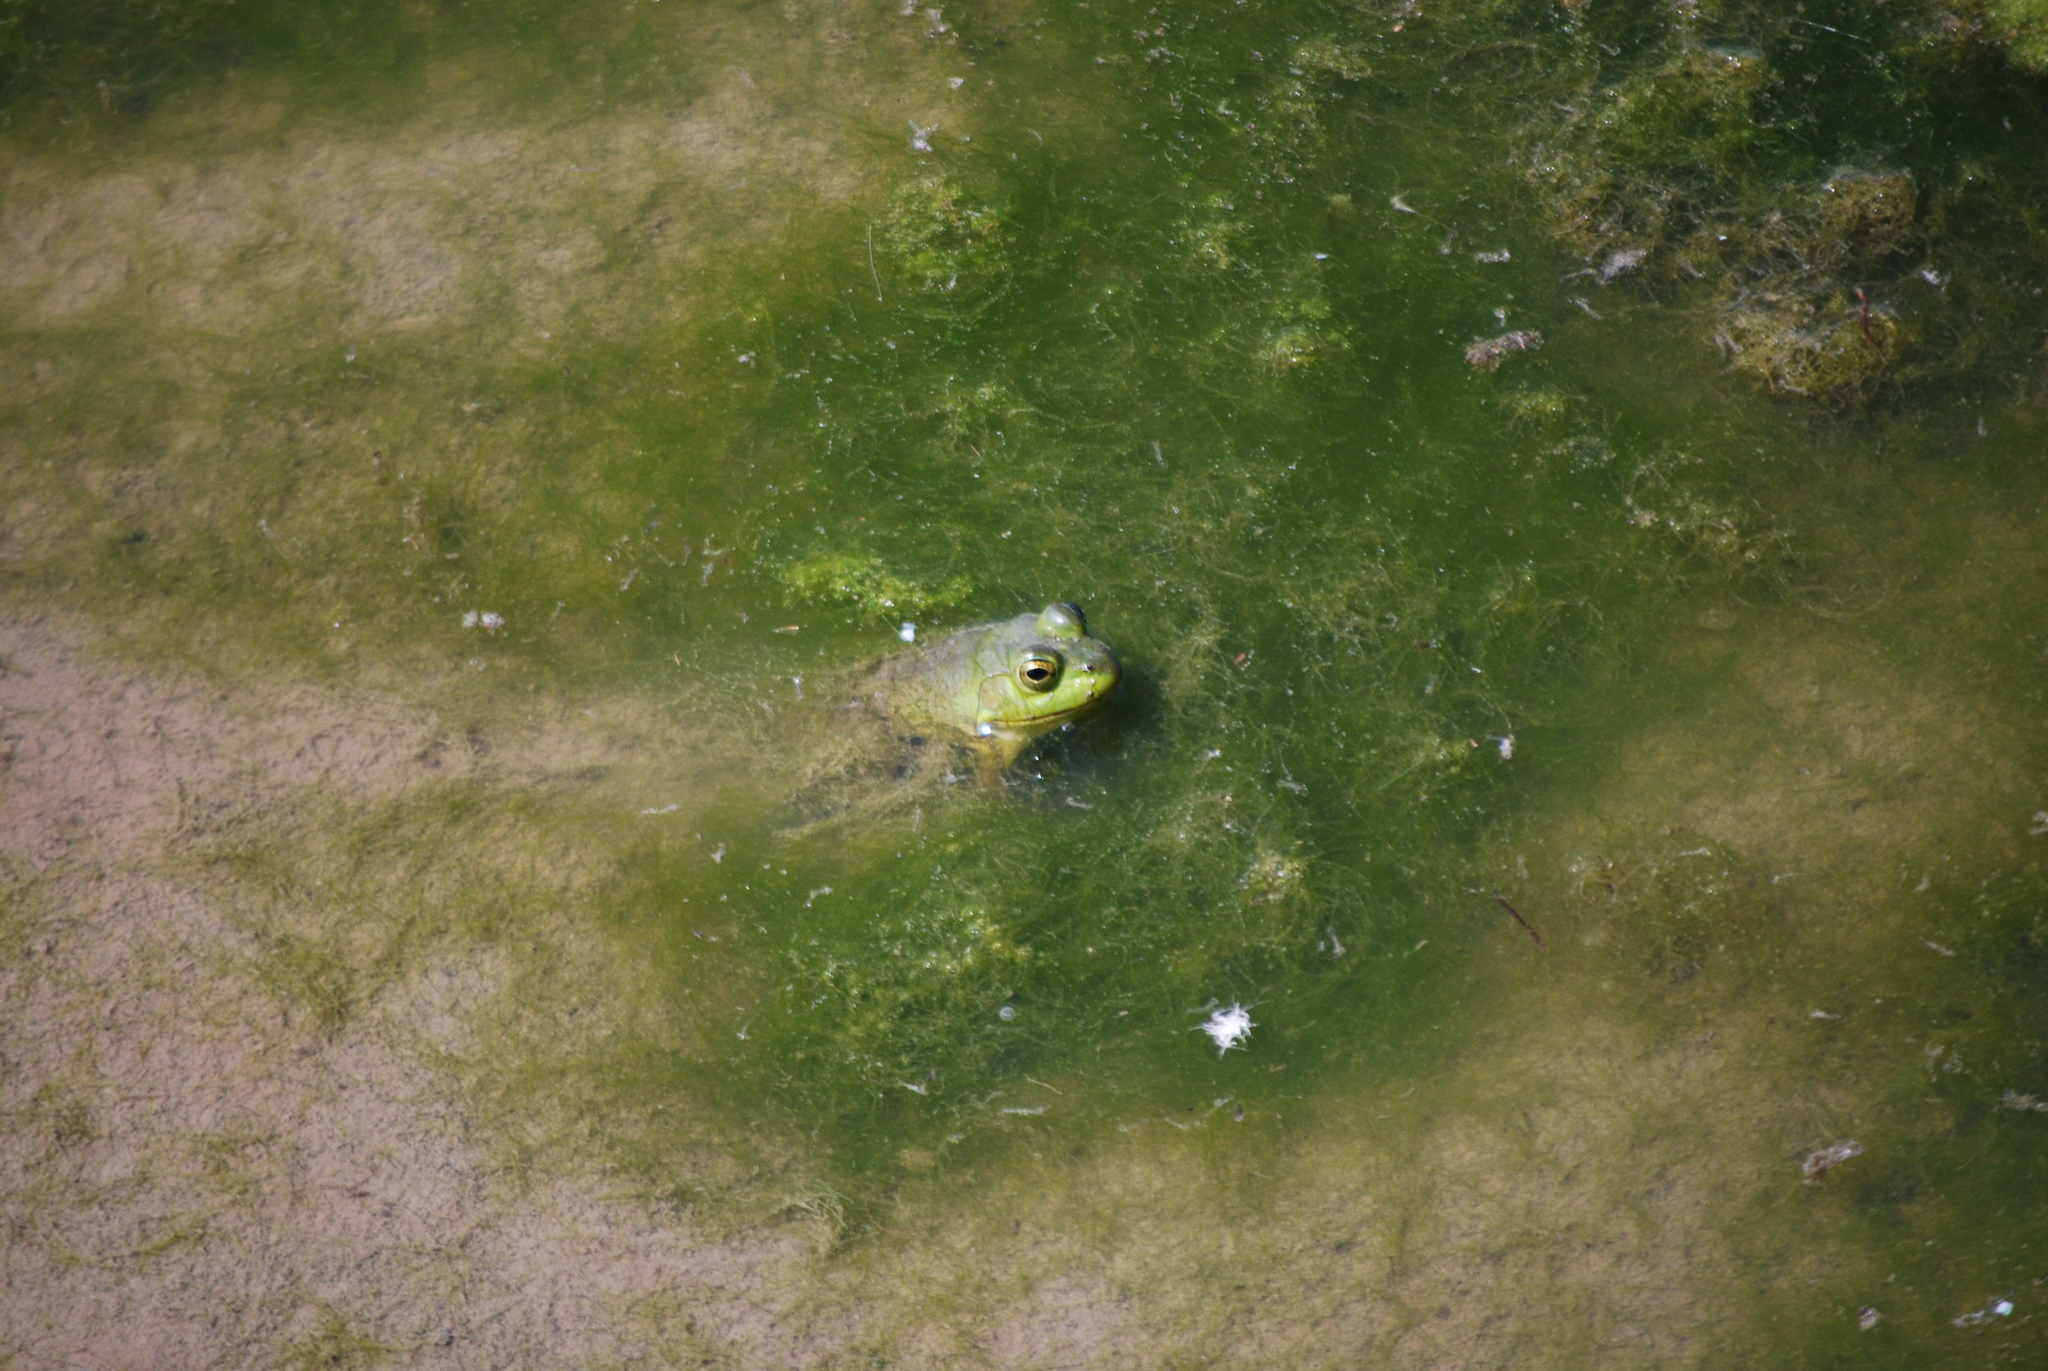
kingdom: Animalia
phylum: Chordata
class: Amphibia
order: Anura
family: Ranidae
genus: Lithobates
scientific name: Lithobates catesbeianus
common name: American bullfrog
